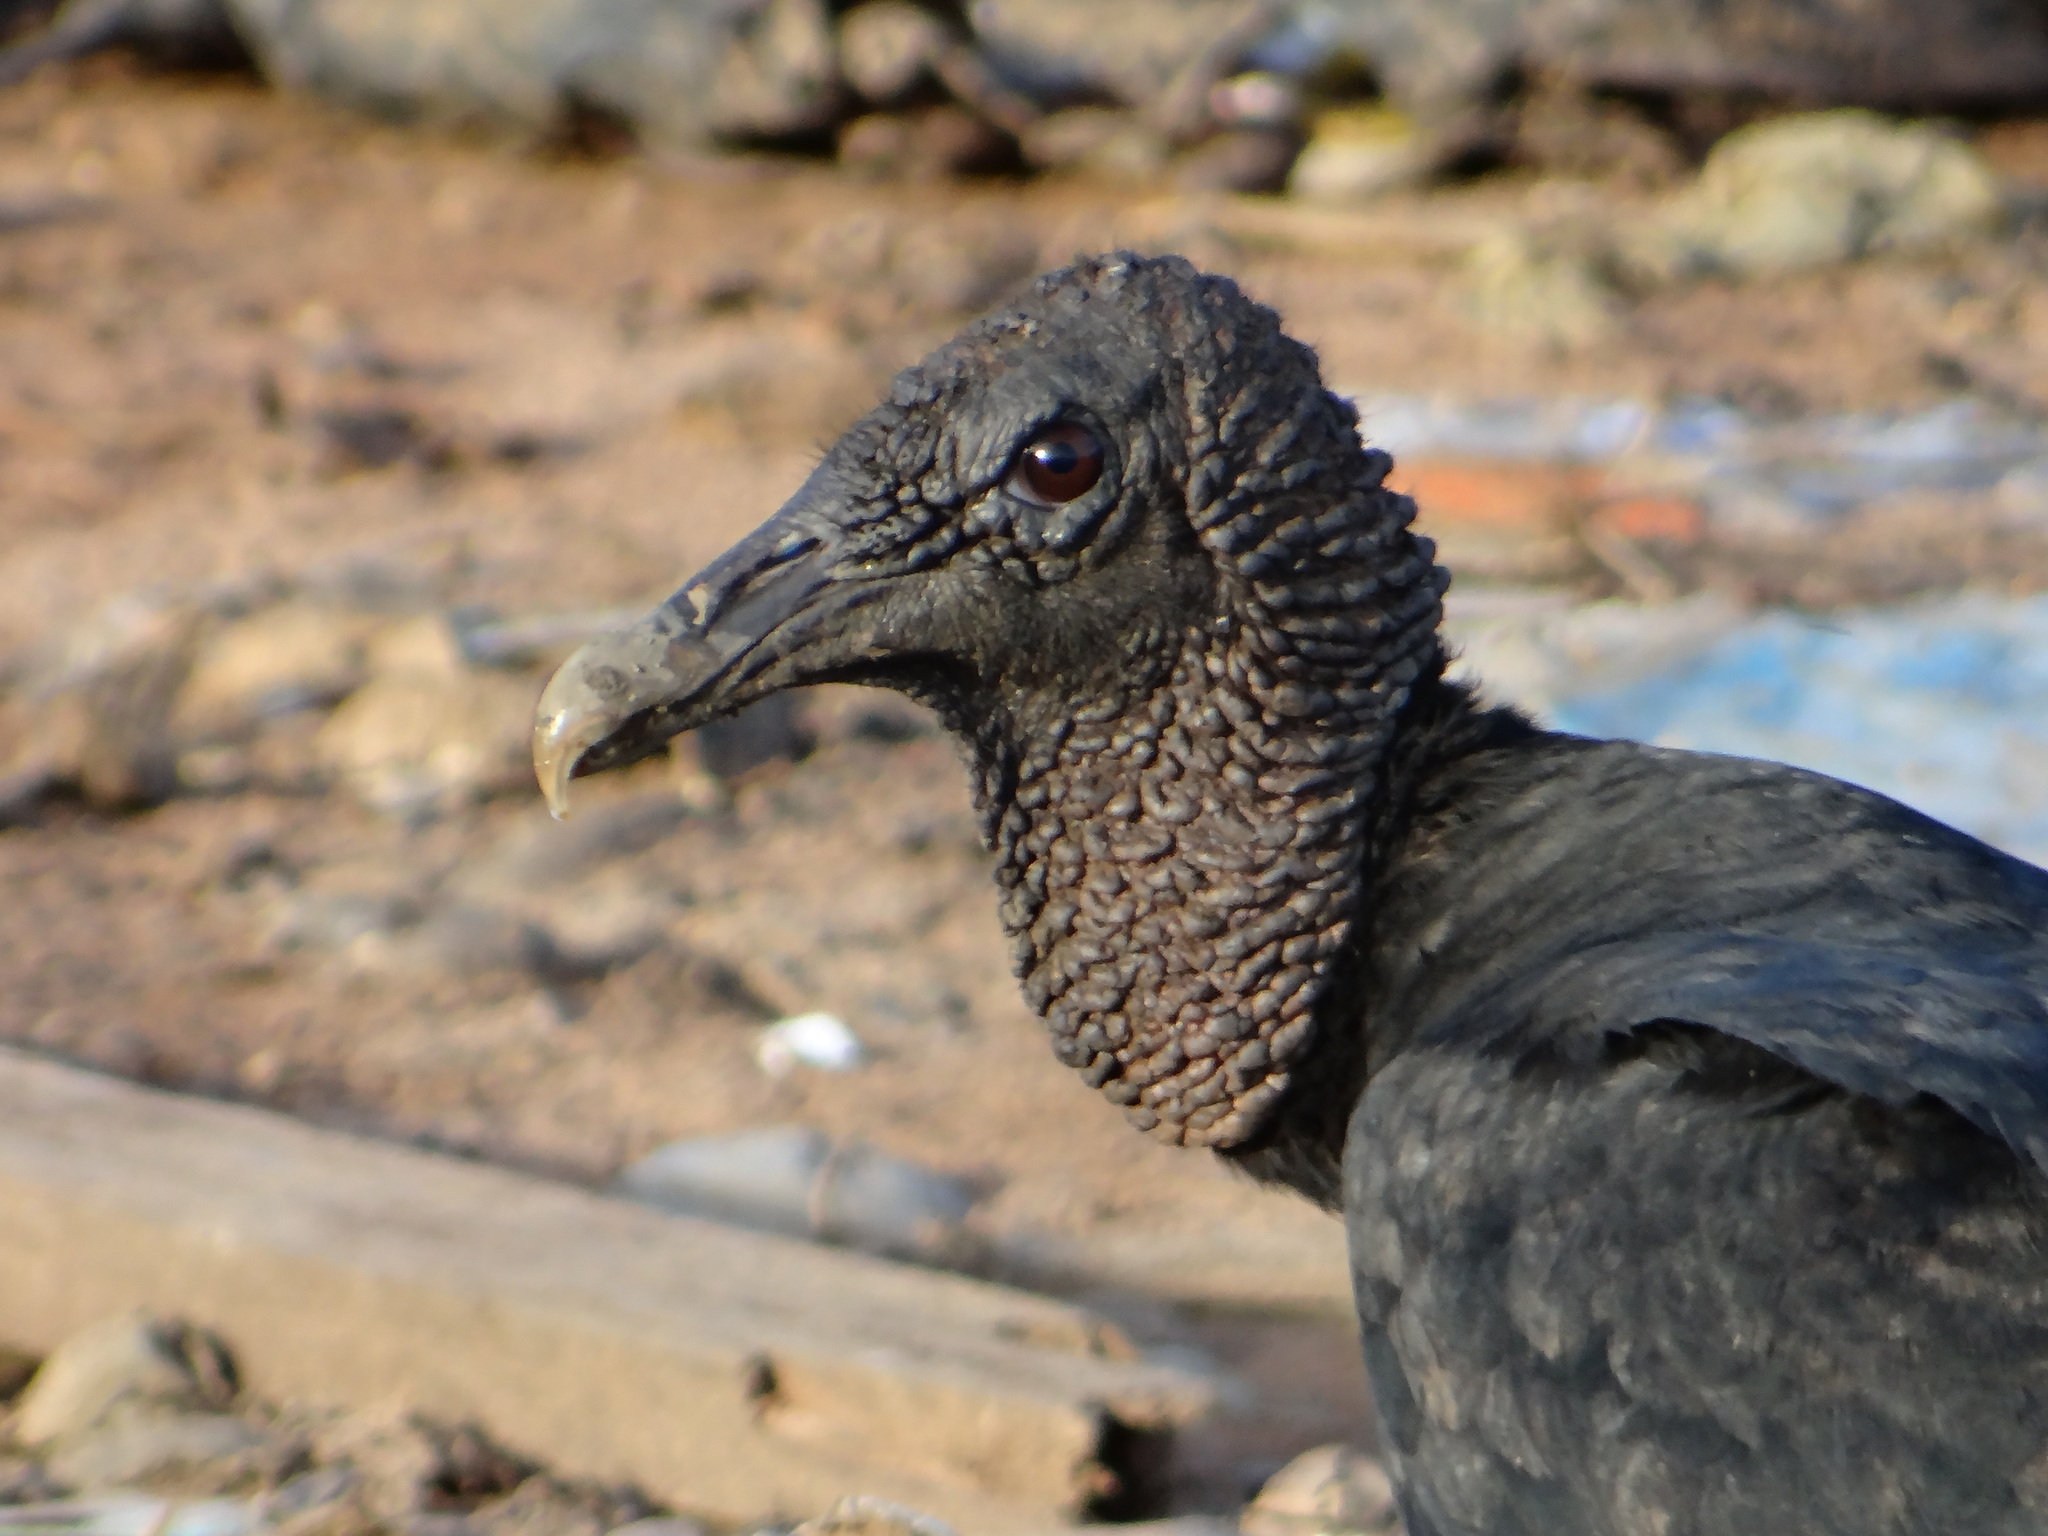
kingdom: Animalia
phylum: Chordata
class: Aves
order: Accipitriformes
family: Cathartidae
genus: Coragyps
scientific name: Coragyps atratus
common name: Black vulture
